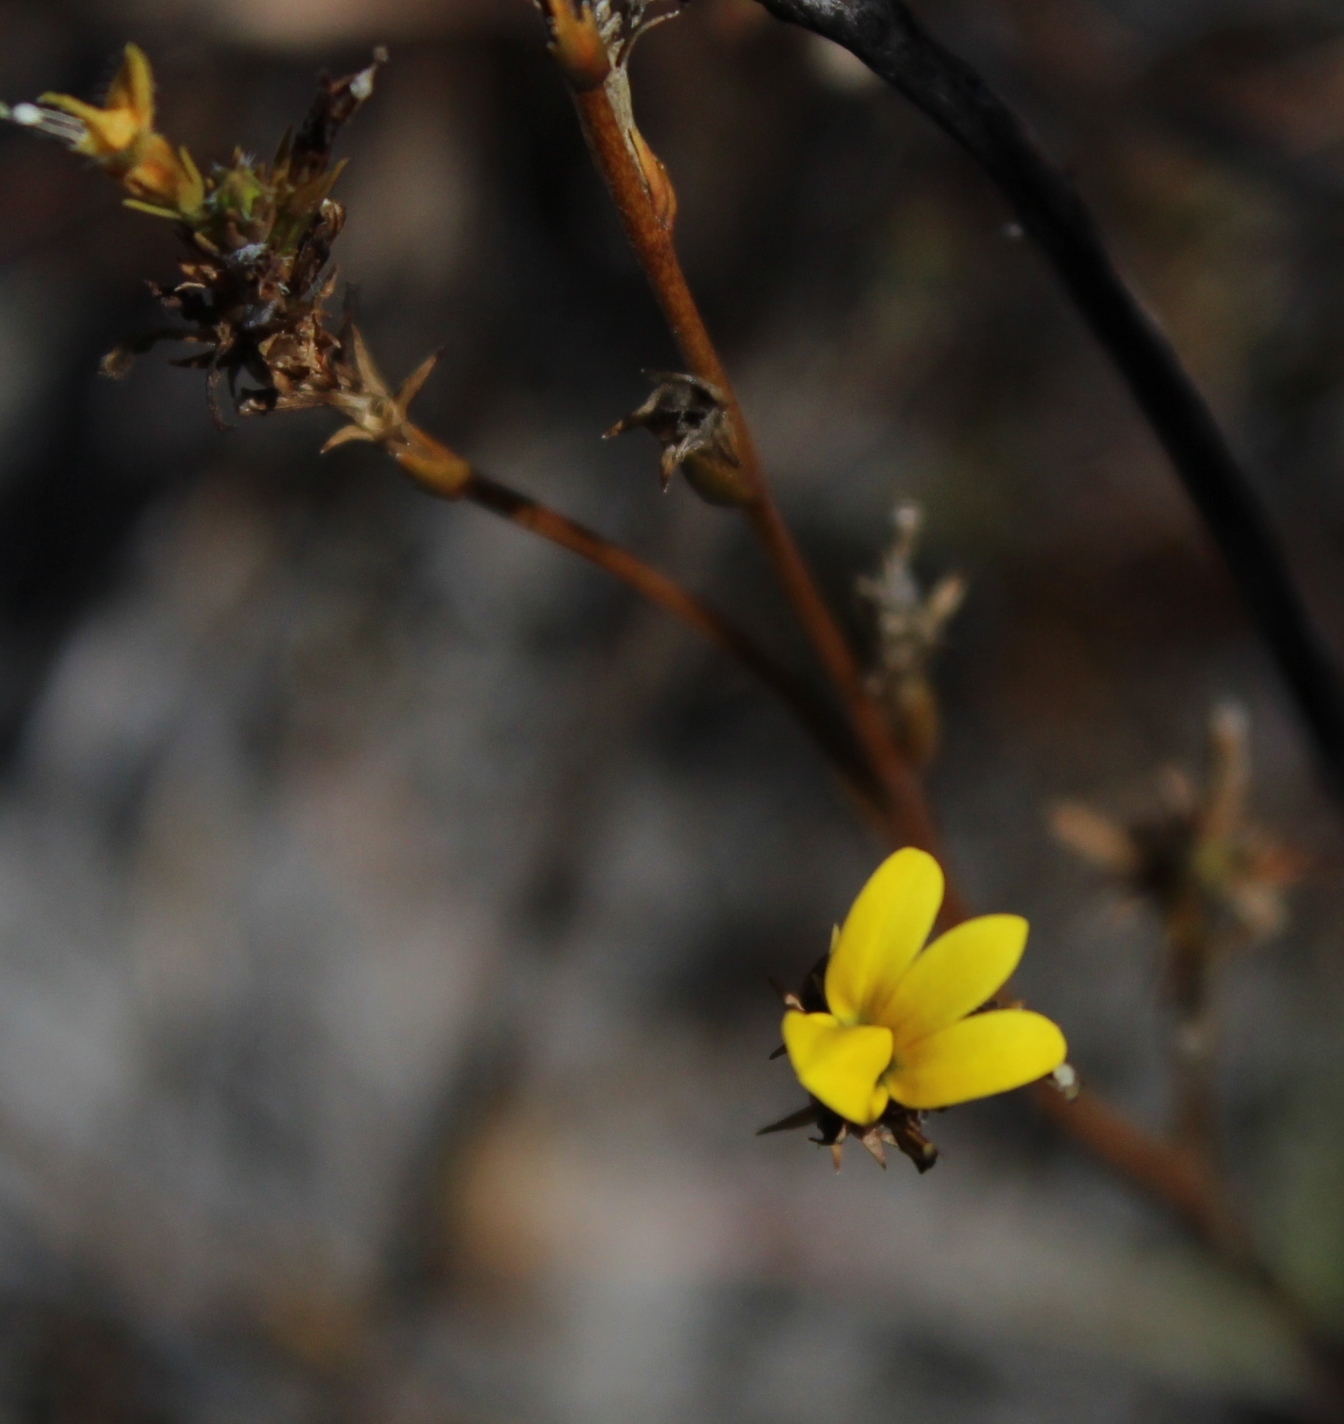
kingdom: Plantae
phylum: Tracheophyta
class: Magnoliopsida
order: Asterales
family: Campanulaceae
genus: Monopsis
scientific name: Monopsis lutea
